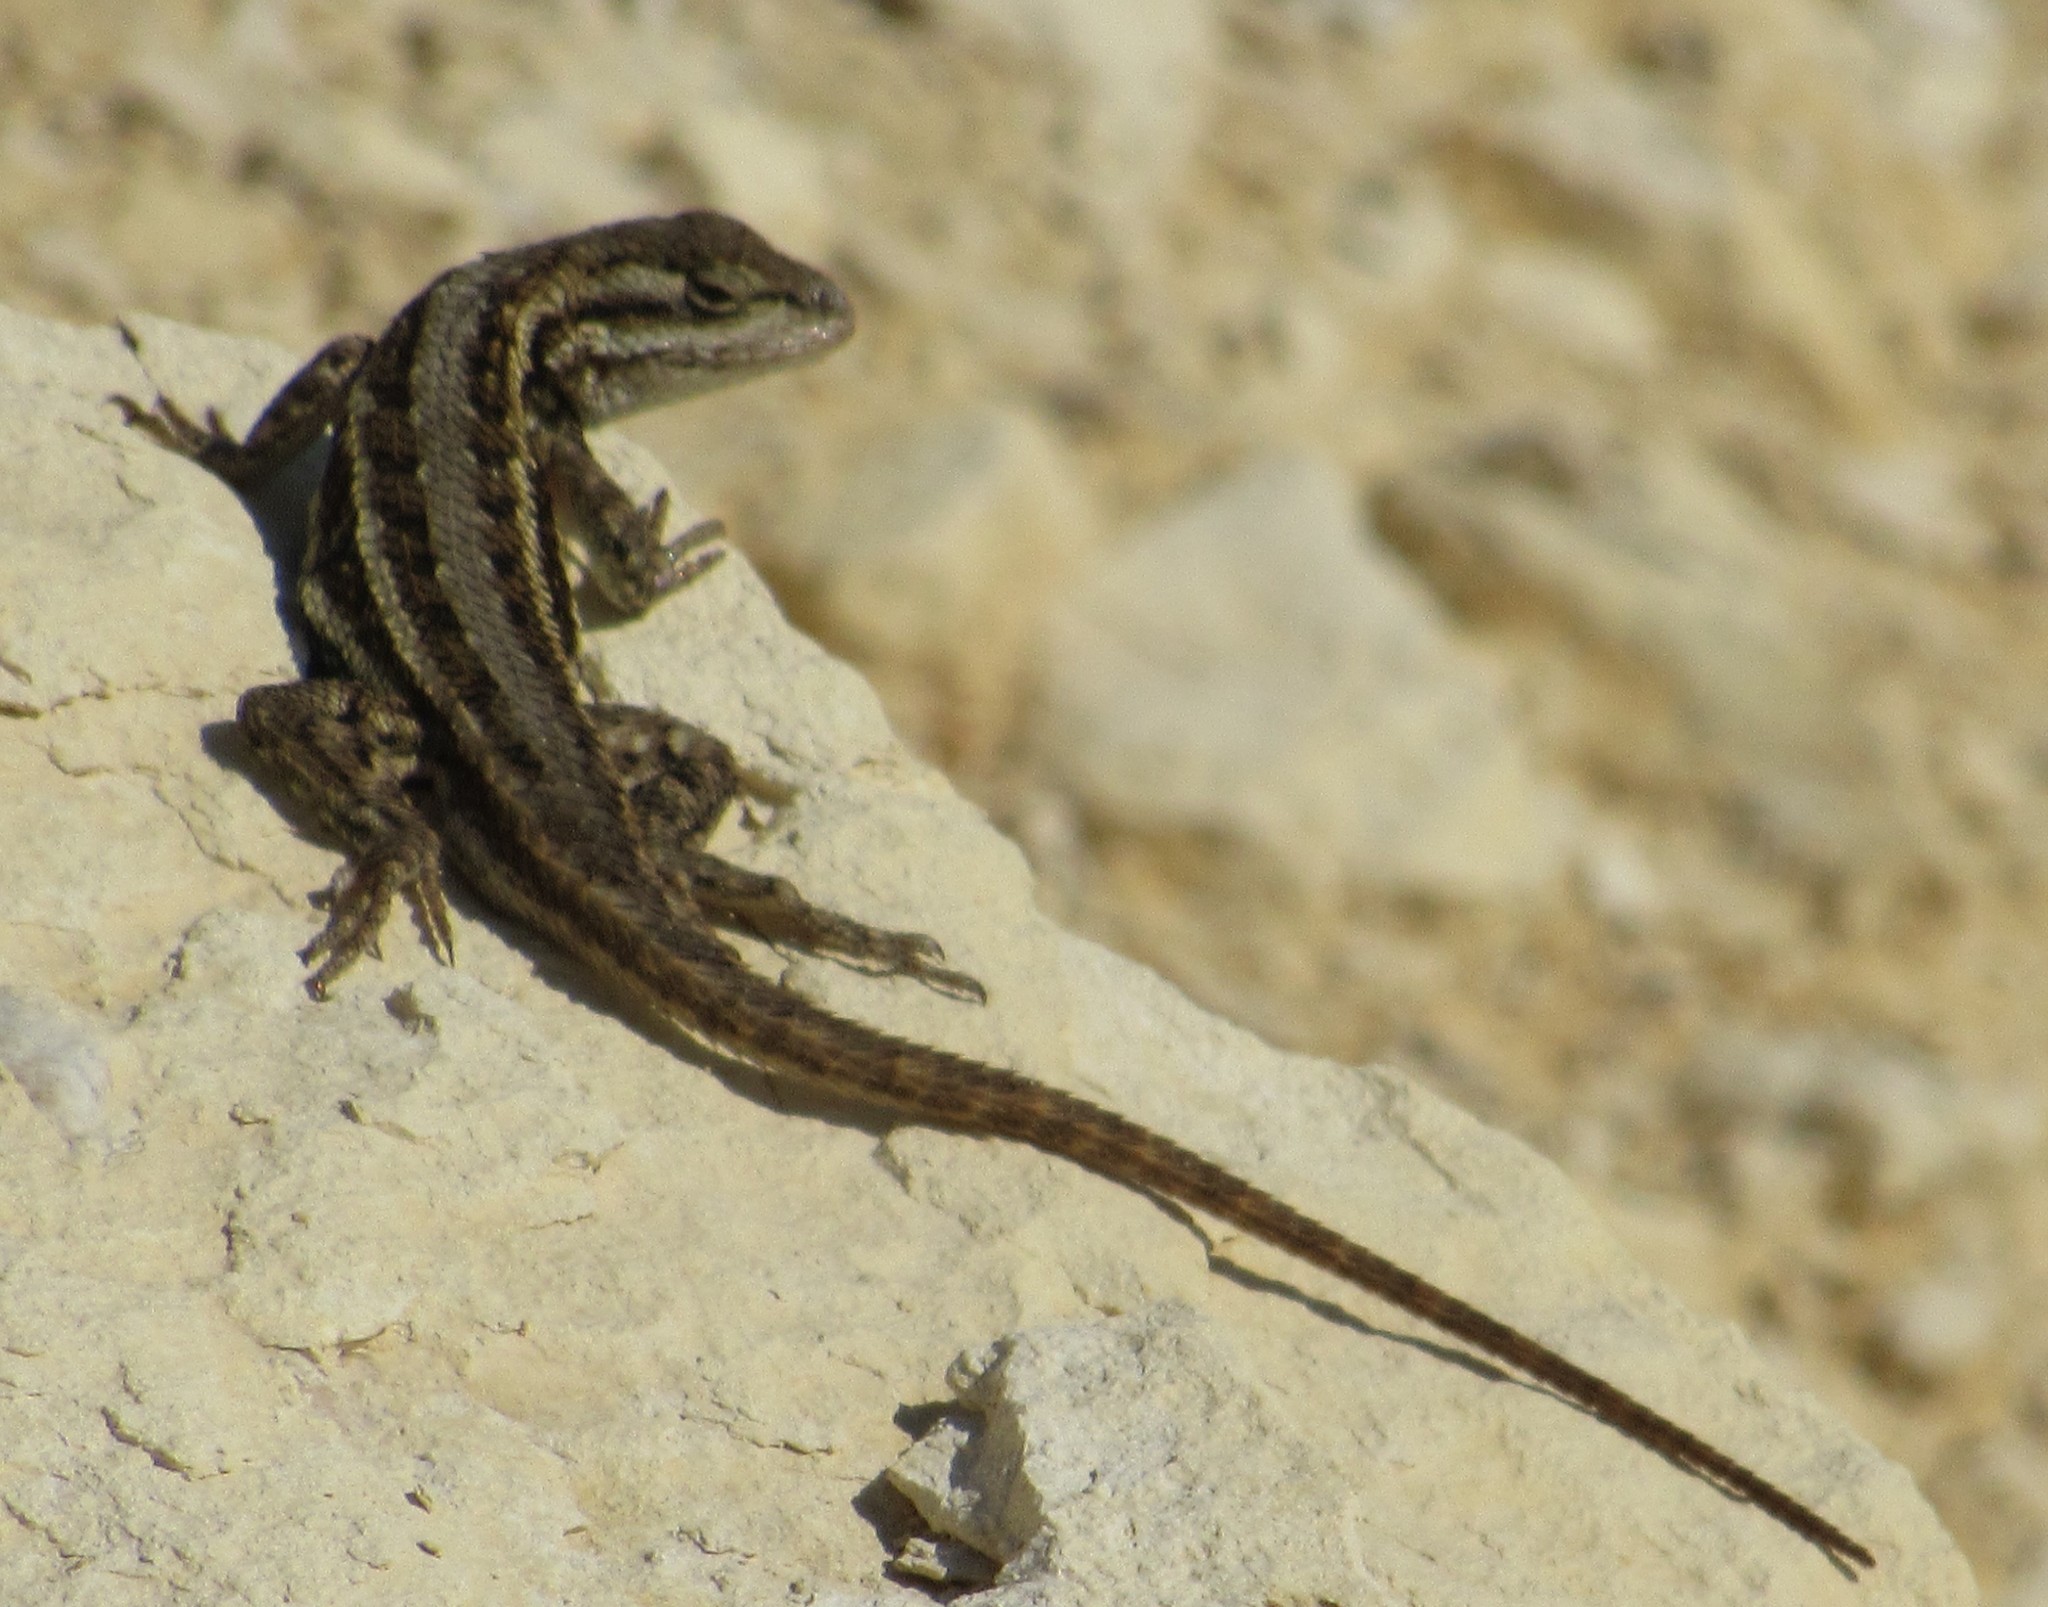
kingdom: Animalia
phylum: Chordata
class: Squamata
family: Phrynosomatidae
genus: Sceloporus
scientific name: Sceloporus consobrinus
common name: Southern prairie lizard
